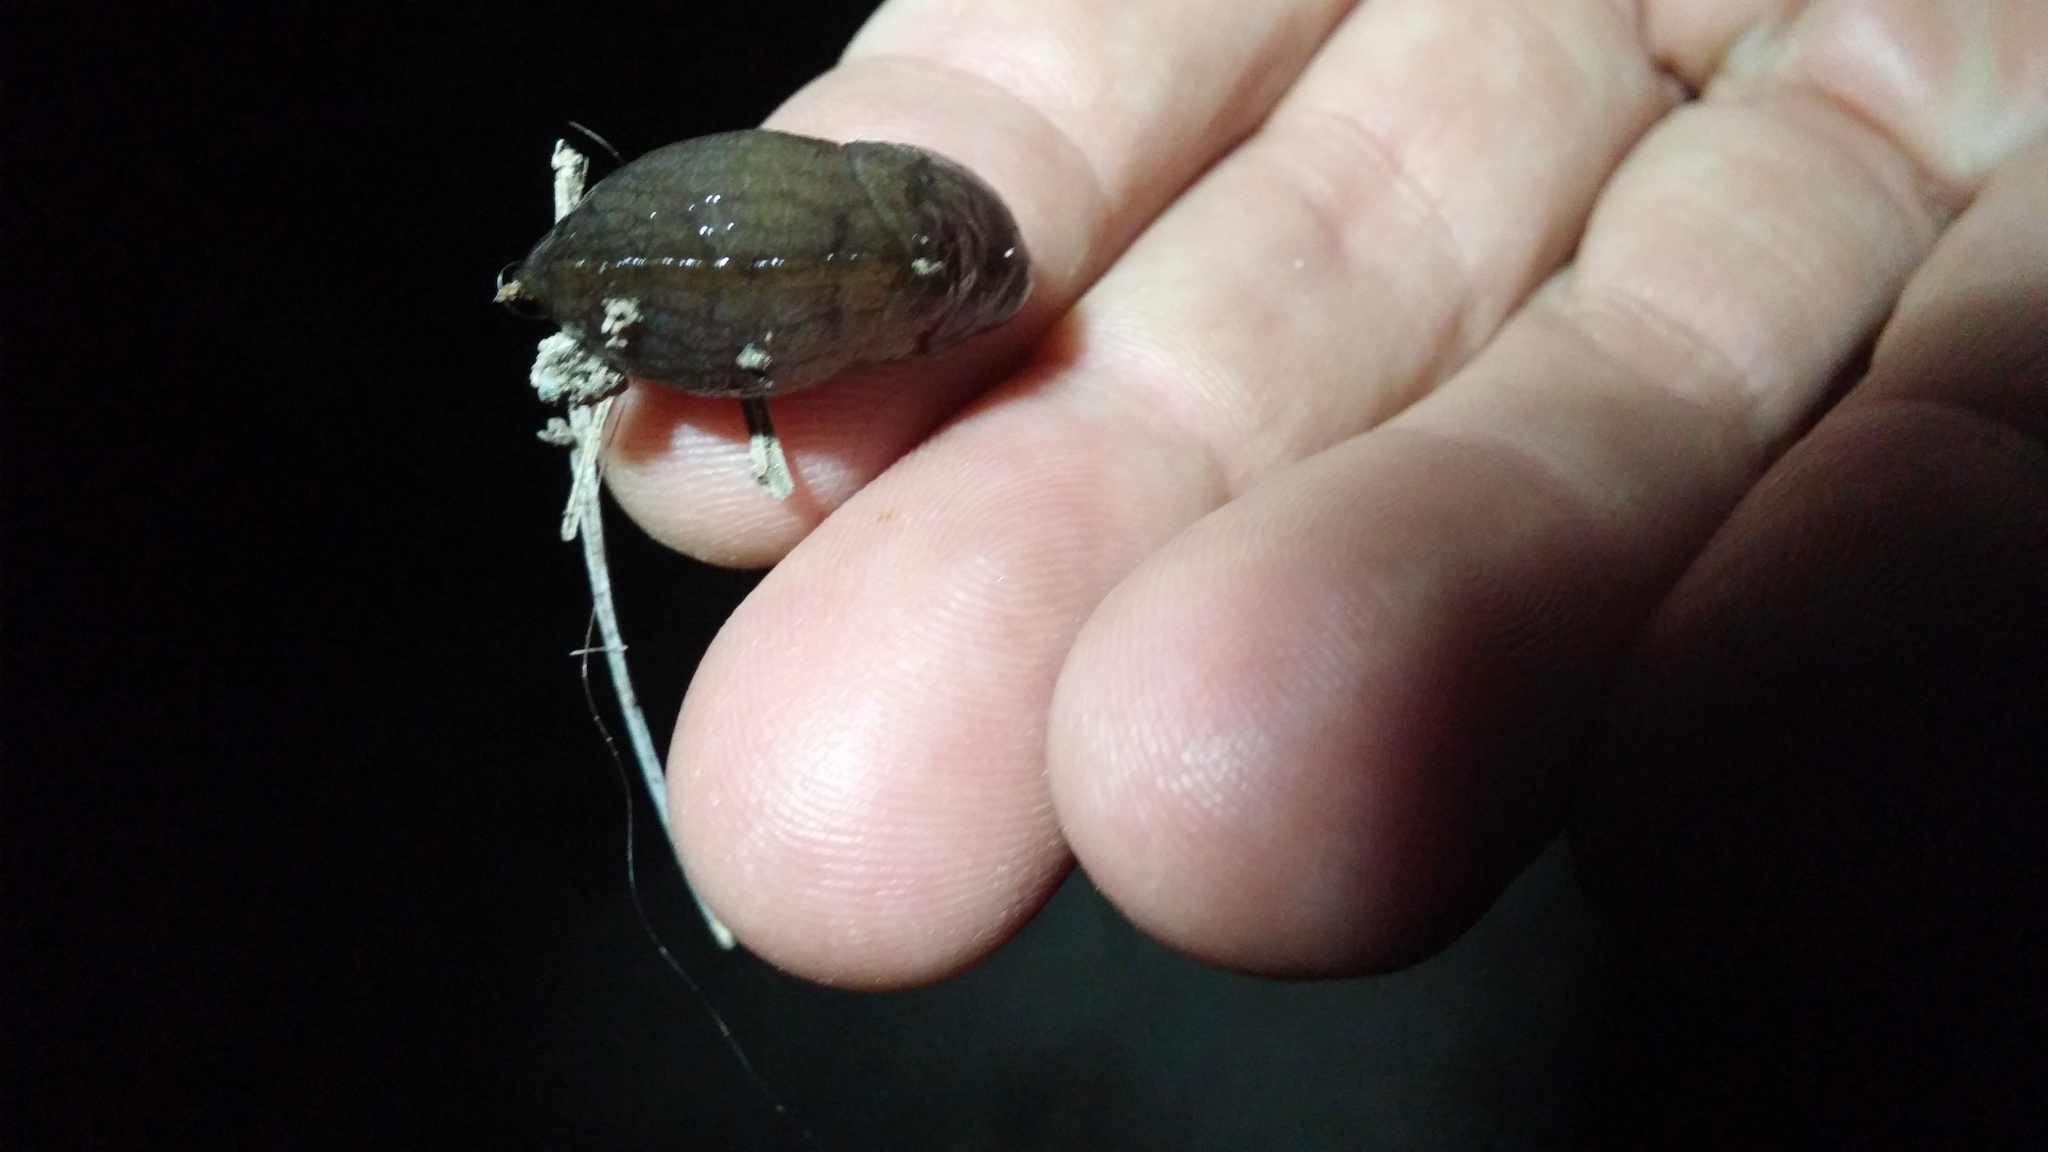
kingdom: Animalia
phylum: Mollusca
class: Gastropoda
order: Stylommatophora
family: Milacidae
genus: Milax
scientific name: Milax gagates
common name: Greenhouse slug
